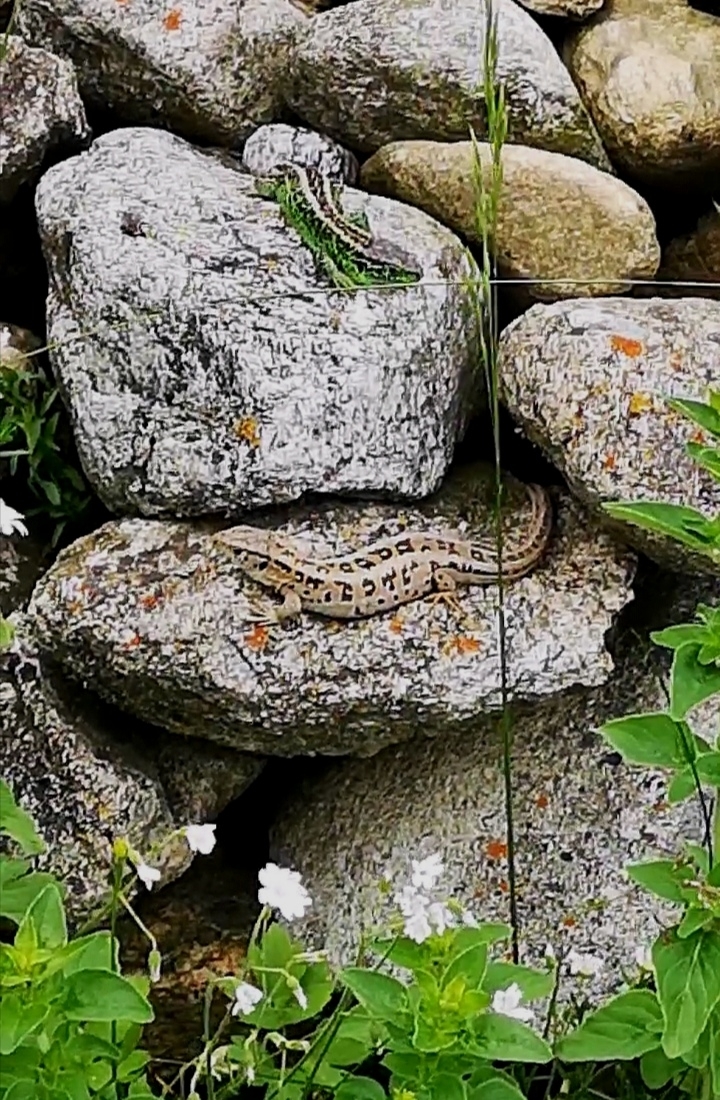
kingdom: Animalia
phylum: Chordata
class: Squamata
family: Lacertidae
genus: Lacerta
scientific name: Lacerta agilis
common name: Sand lizard
